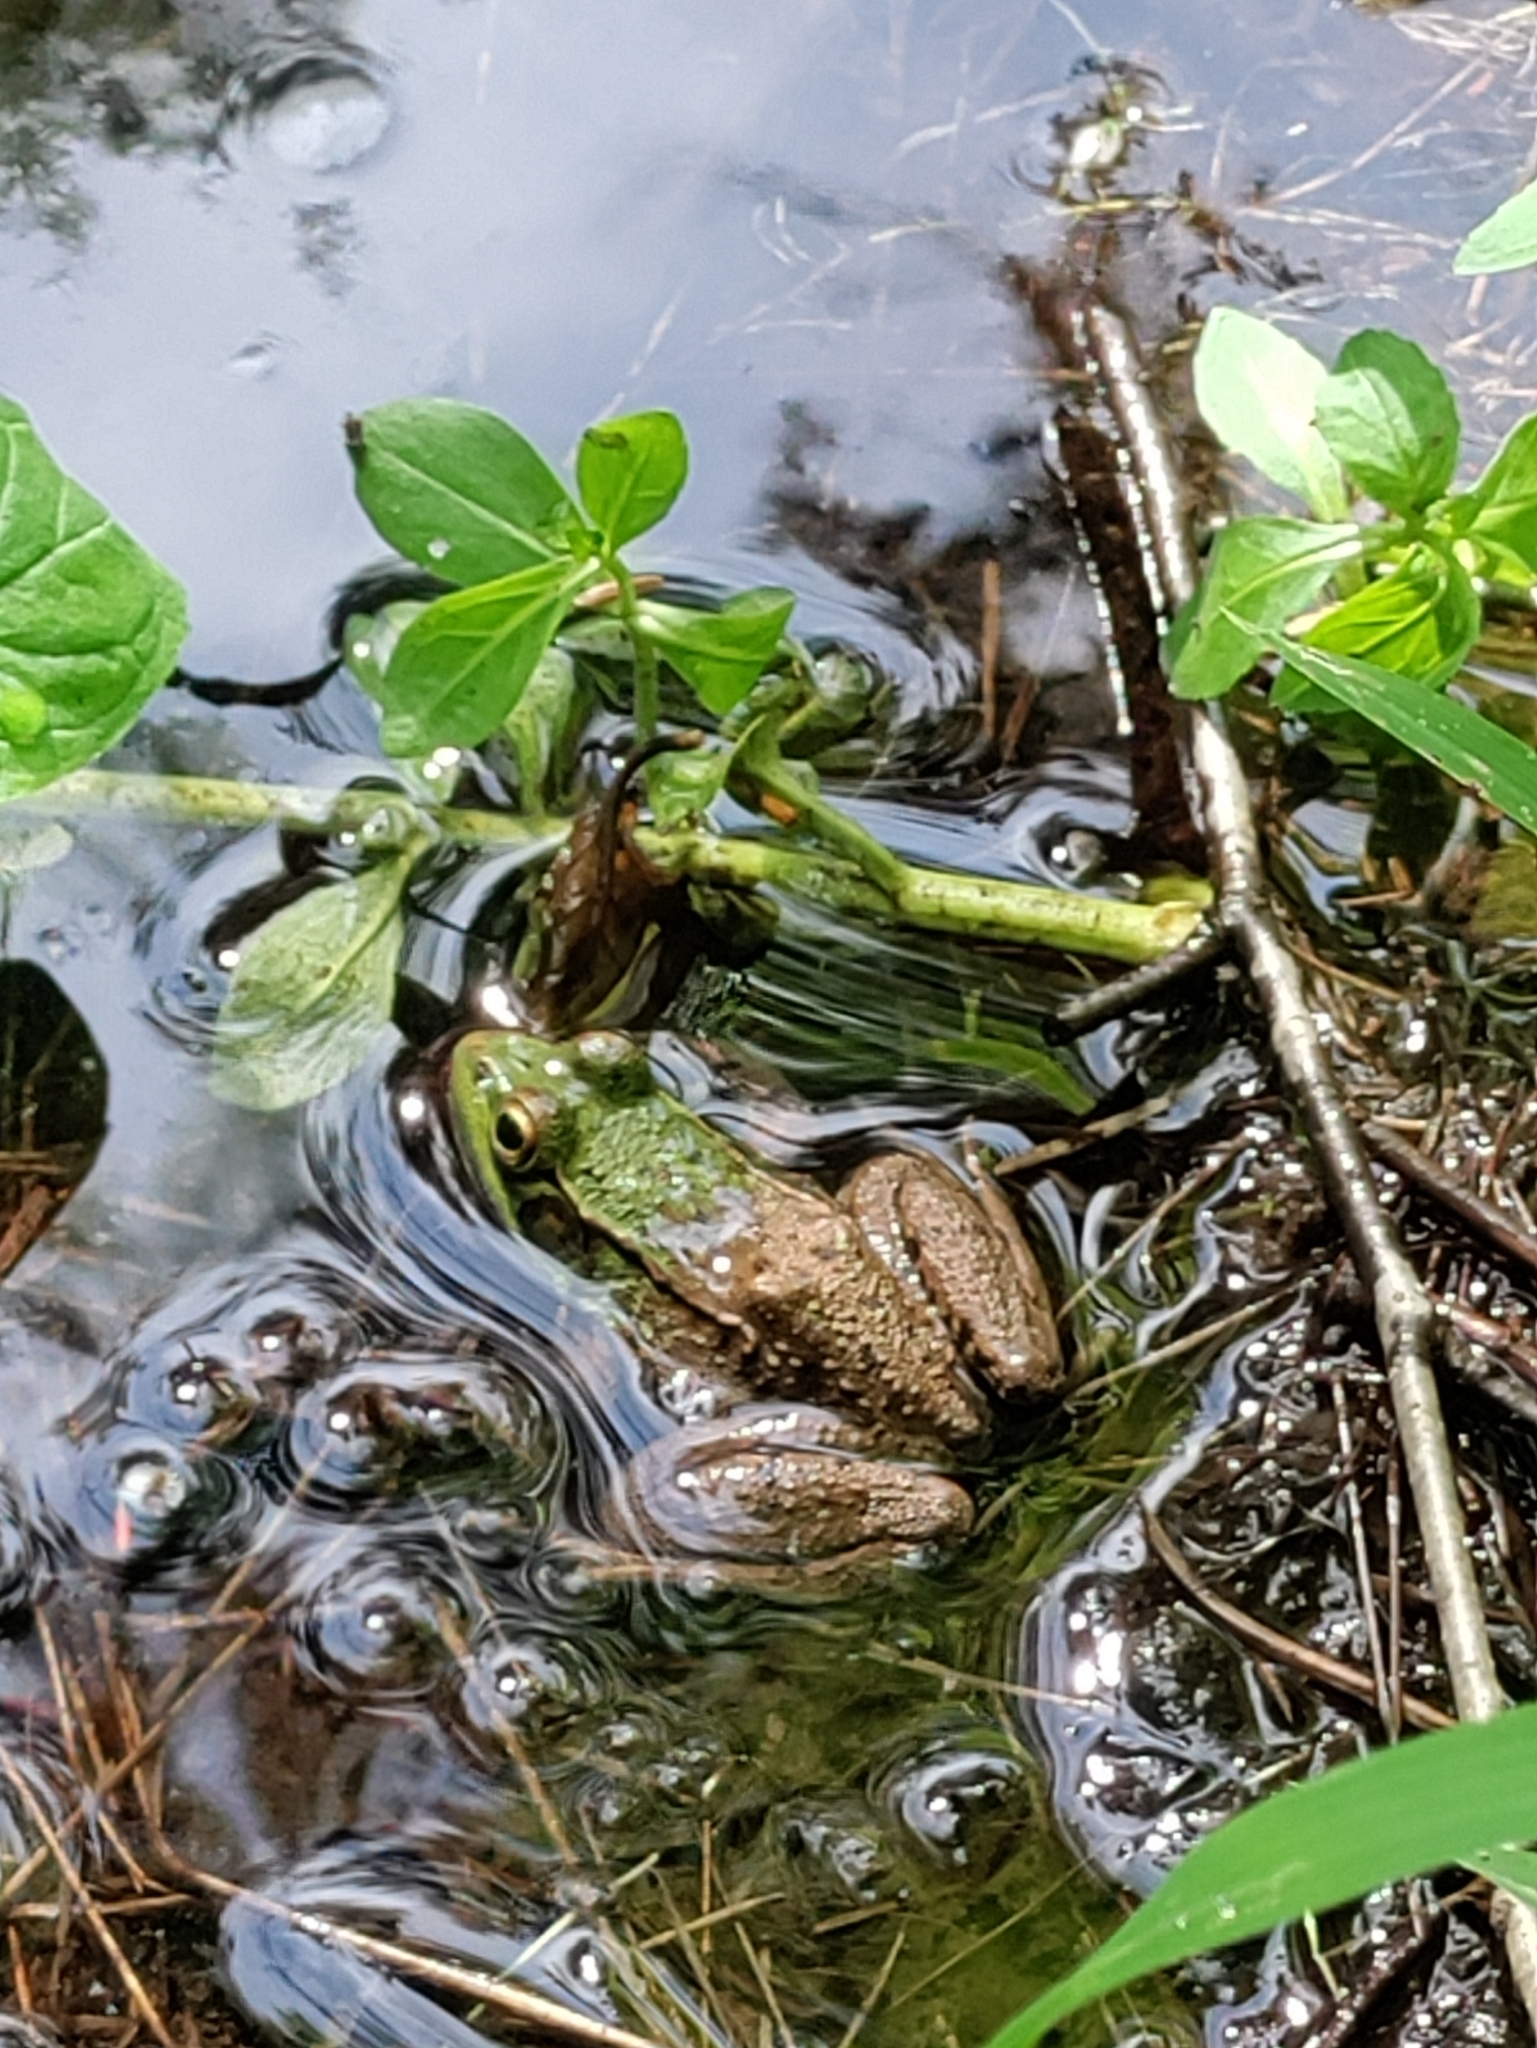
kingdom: Animalia
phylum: Chordata
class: Amphibia
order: Anura
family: Ranidae
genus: Lithobates
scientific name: Lithobates clamitans
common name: Green frog
